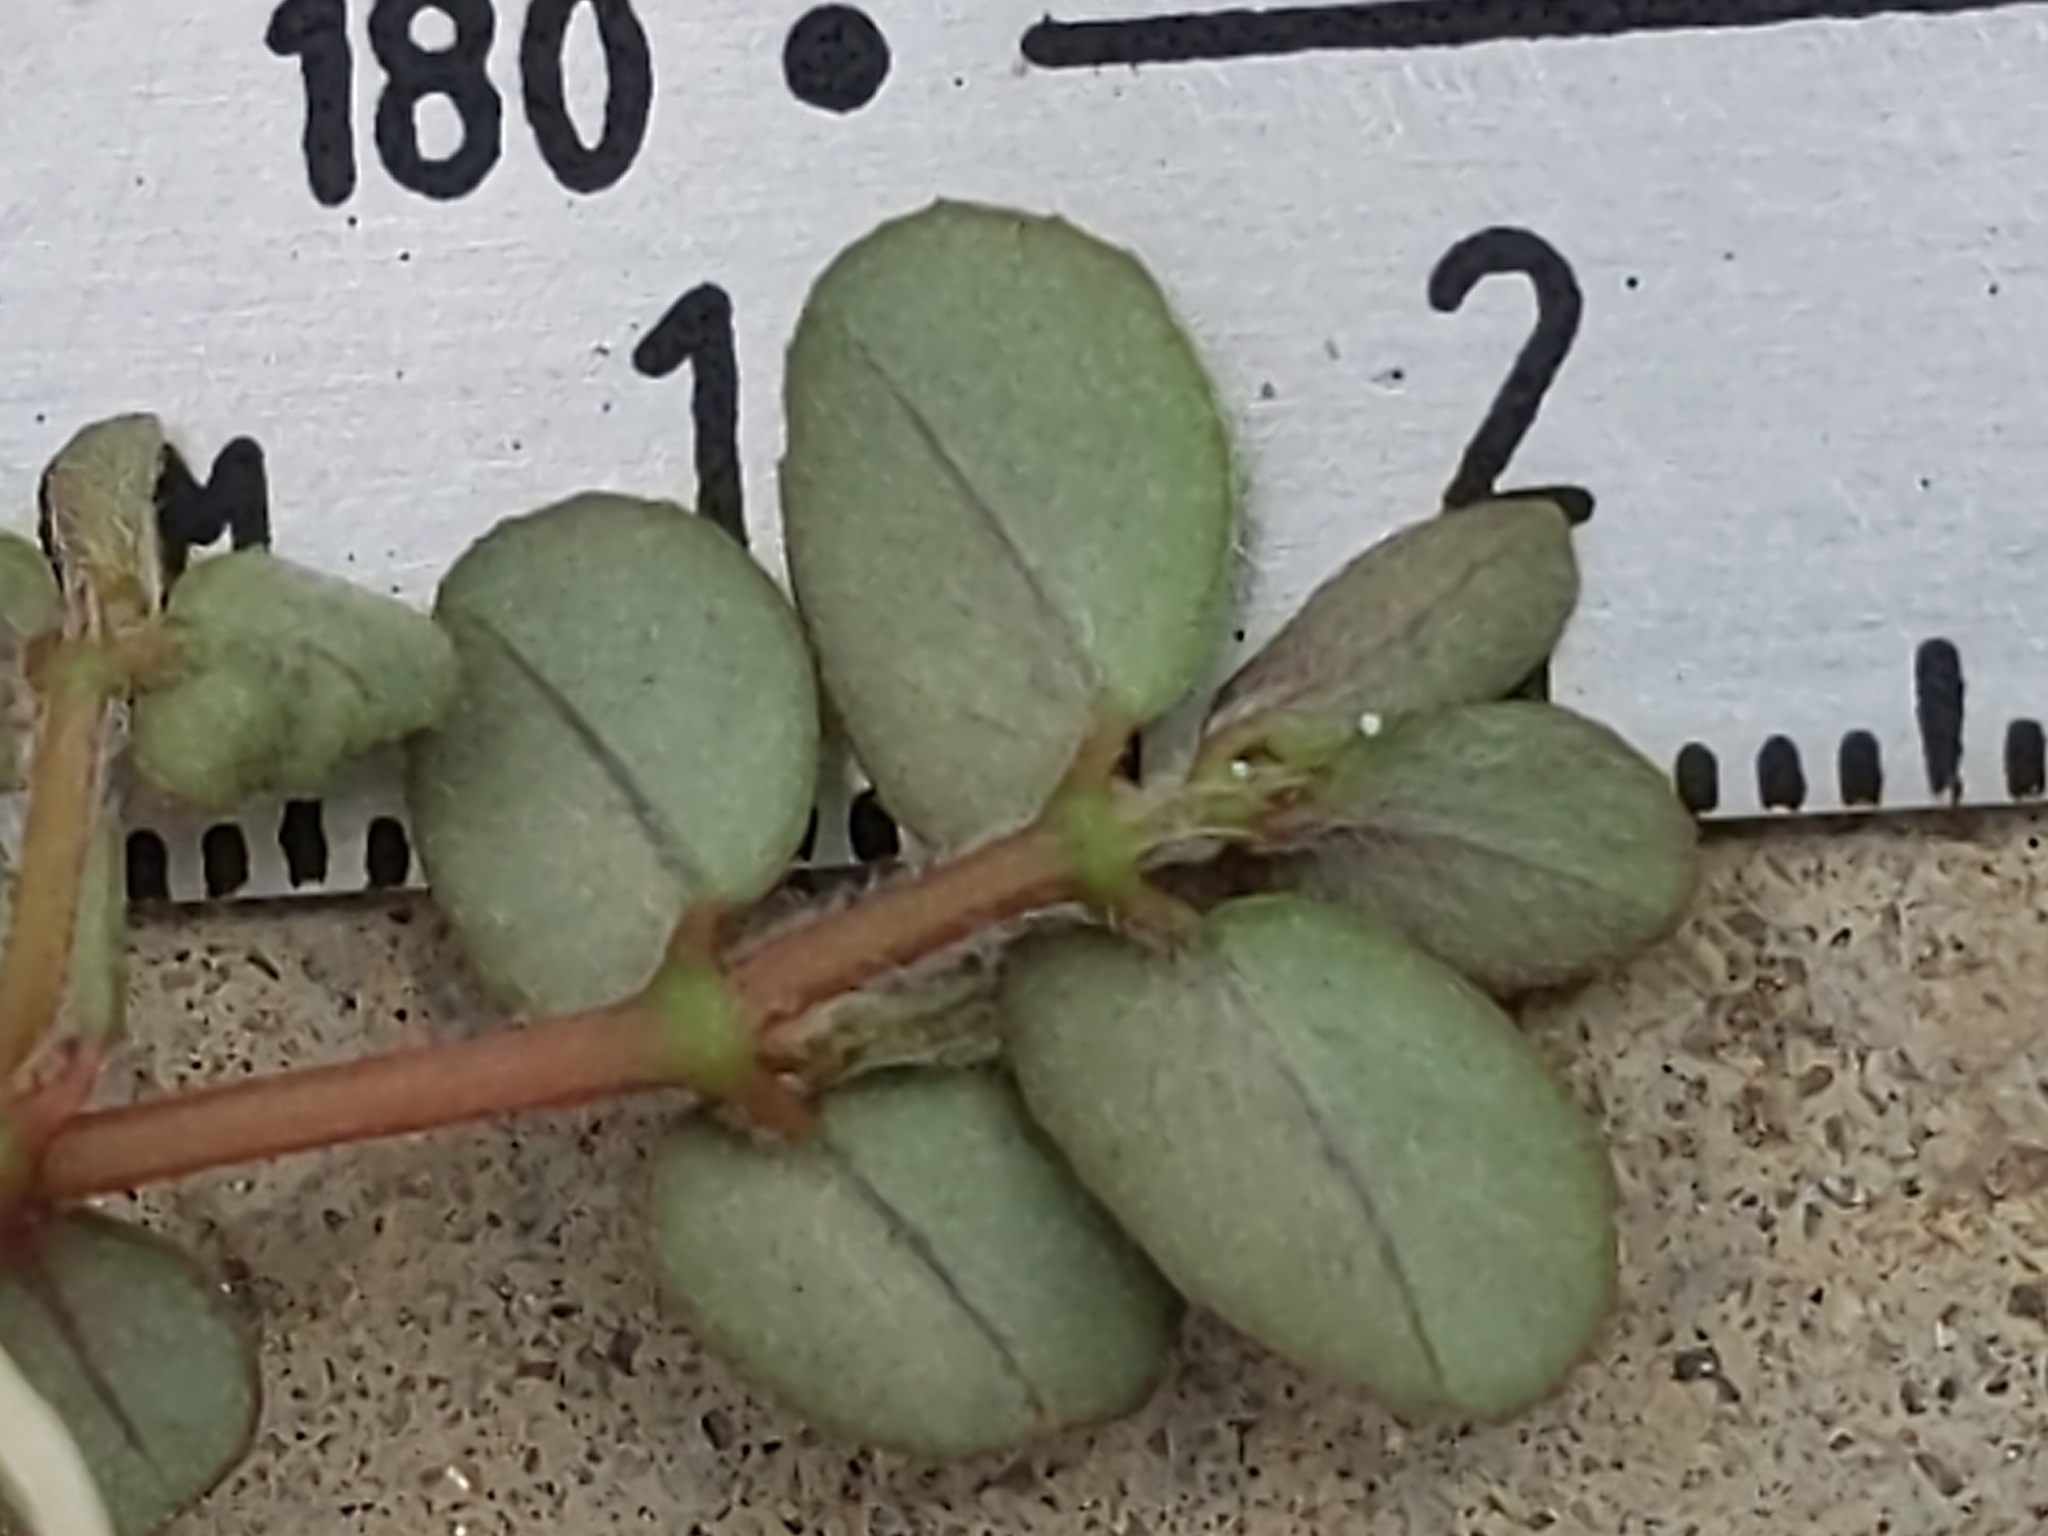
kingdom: Plantae
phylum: Tracheophyta
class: Magnoliopsida
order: Malpighiales
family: Euphorbiaceae
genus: Euphorbia
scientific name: Euphorbia maculata
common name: Spotted spurge
